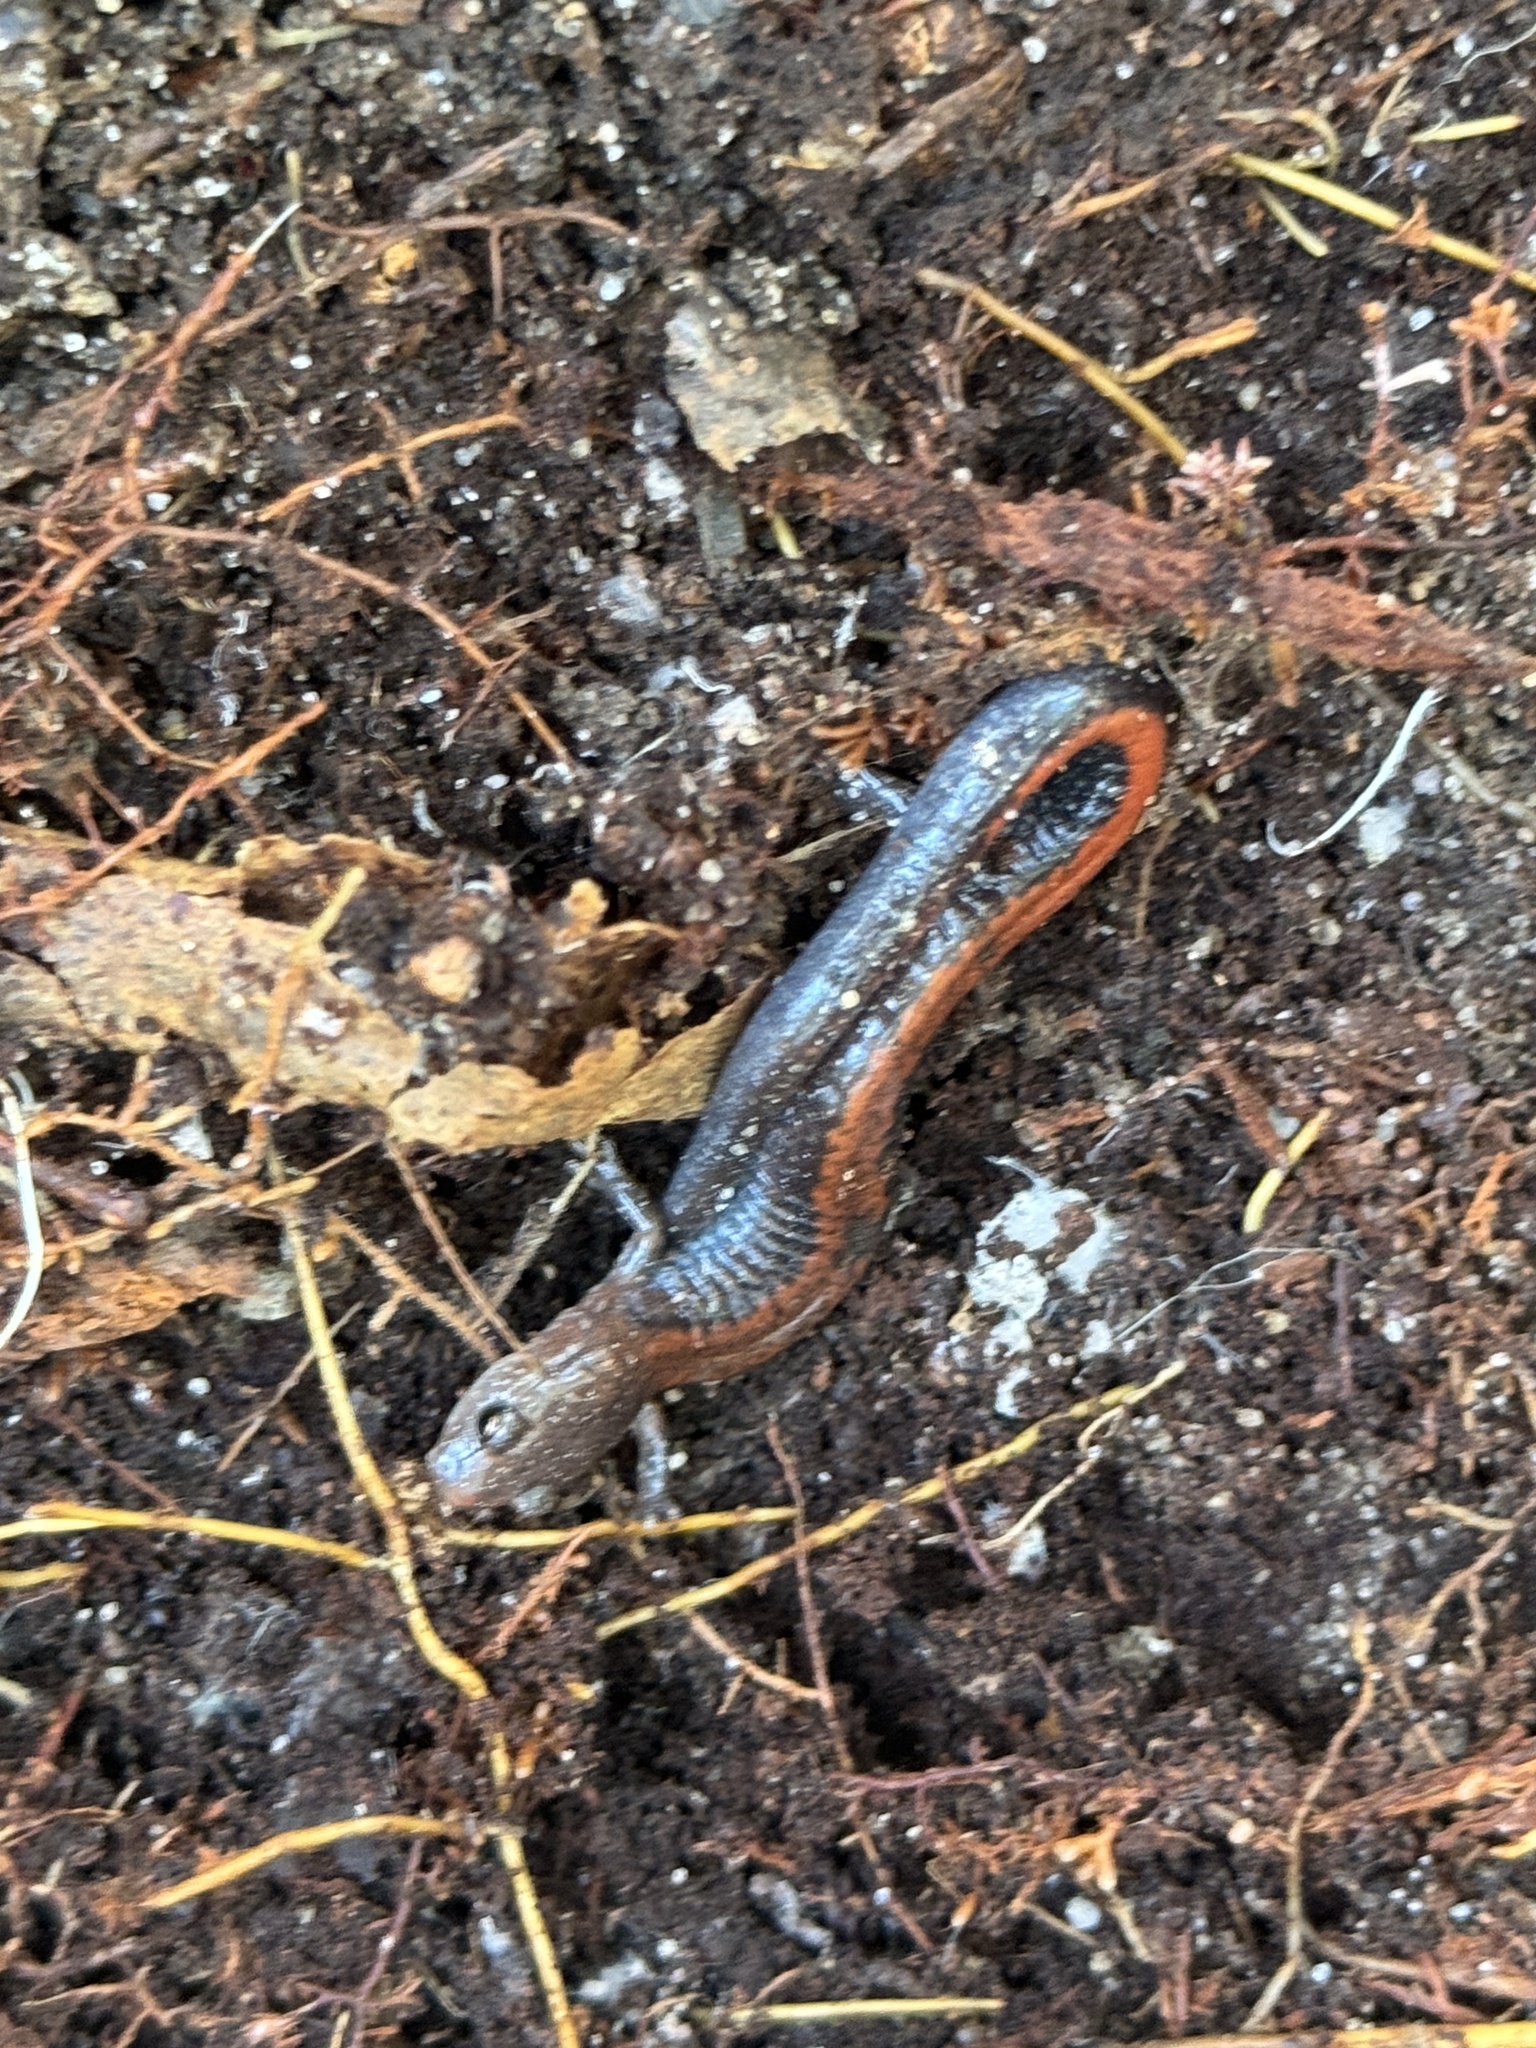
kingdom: Animalia
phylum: Chordata
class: Amphibia
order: Caudata
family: Plethodontidae
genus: Plethodon
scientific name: Plethodon cinereus
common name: Redback salamander
